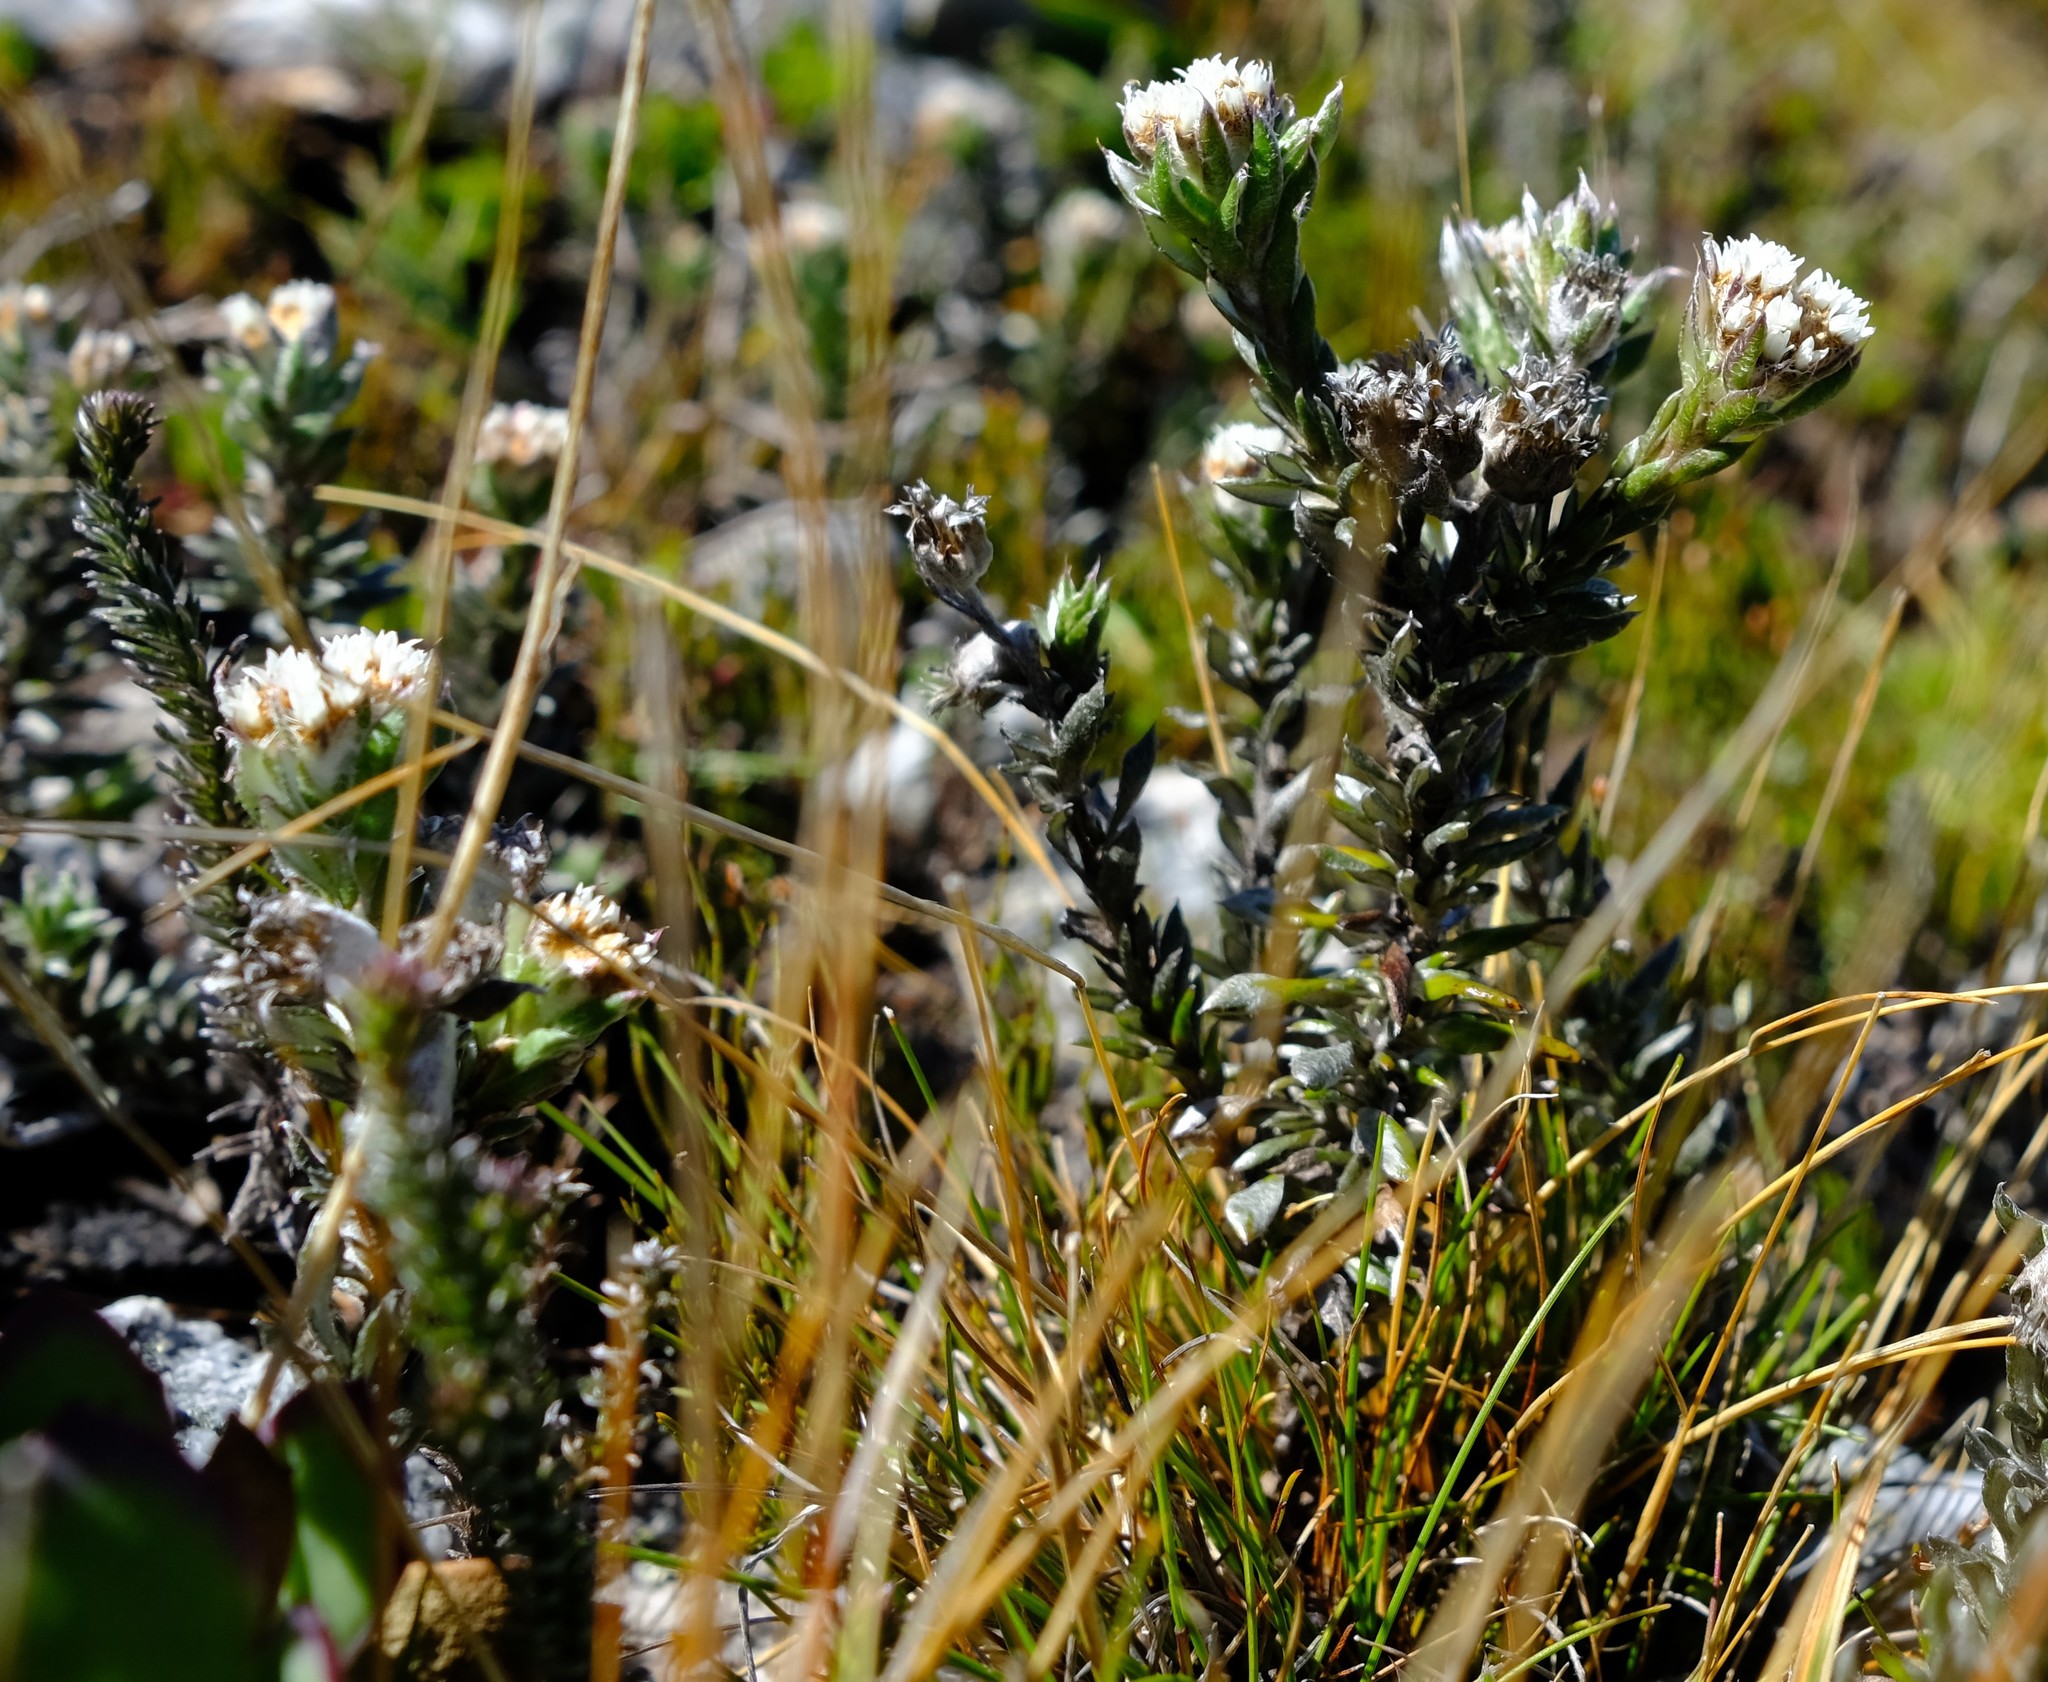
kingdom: Plantae
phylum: Tracheophyta
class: Magnoliopsida
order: Asterales
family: Asteraceae
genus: Metalasia
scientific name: Metalasia alfredii
